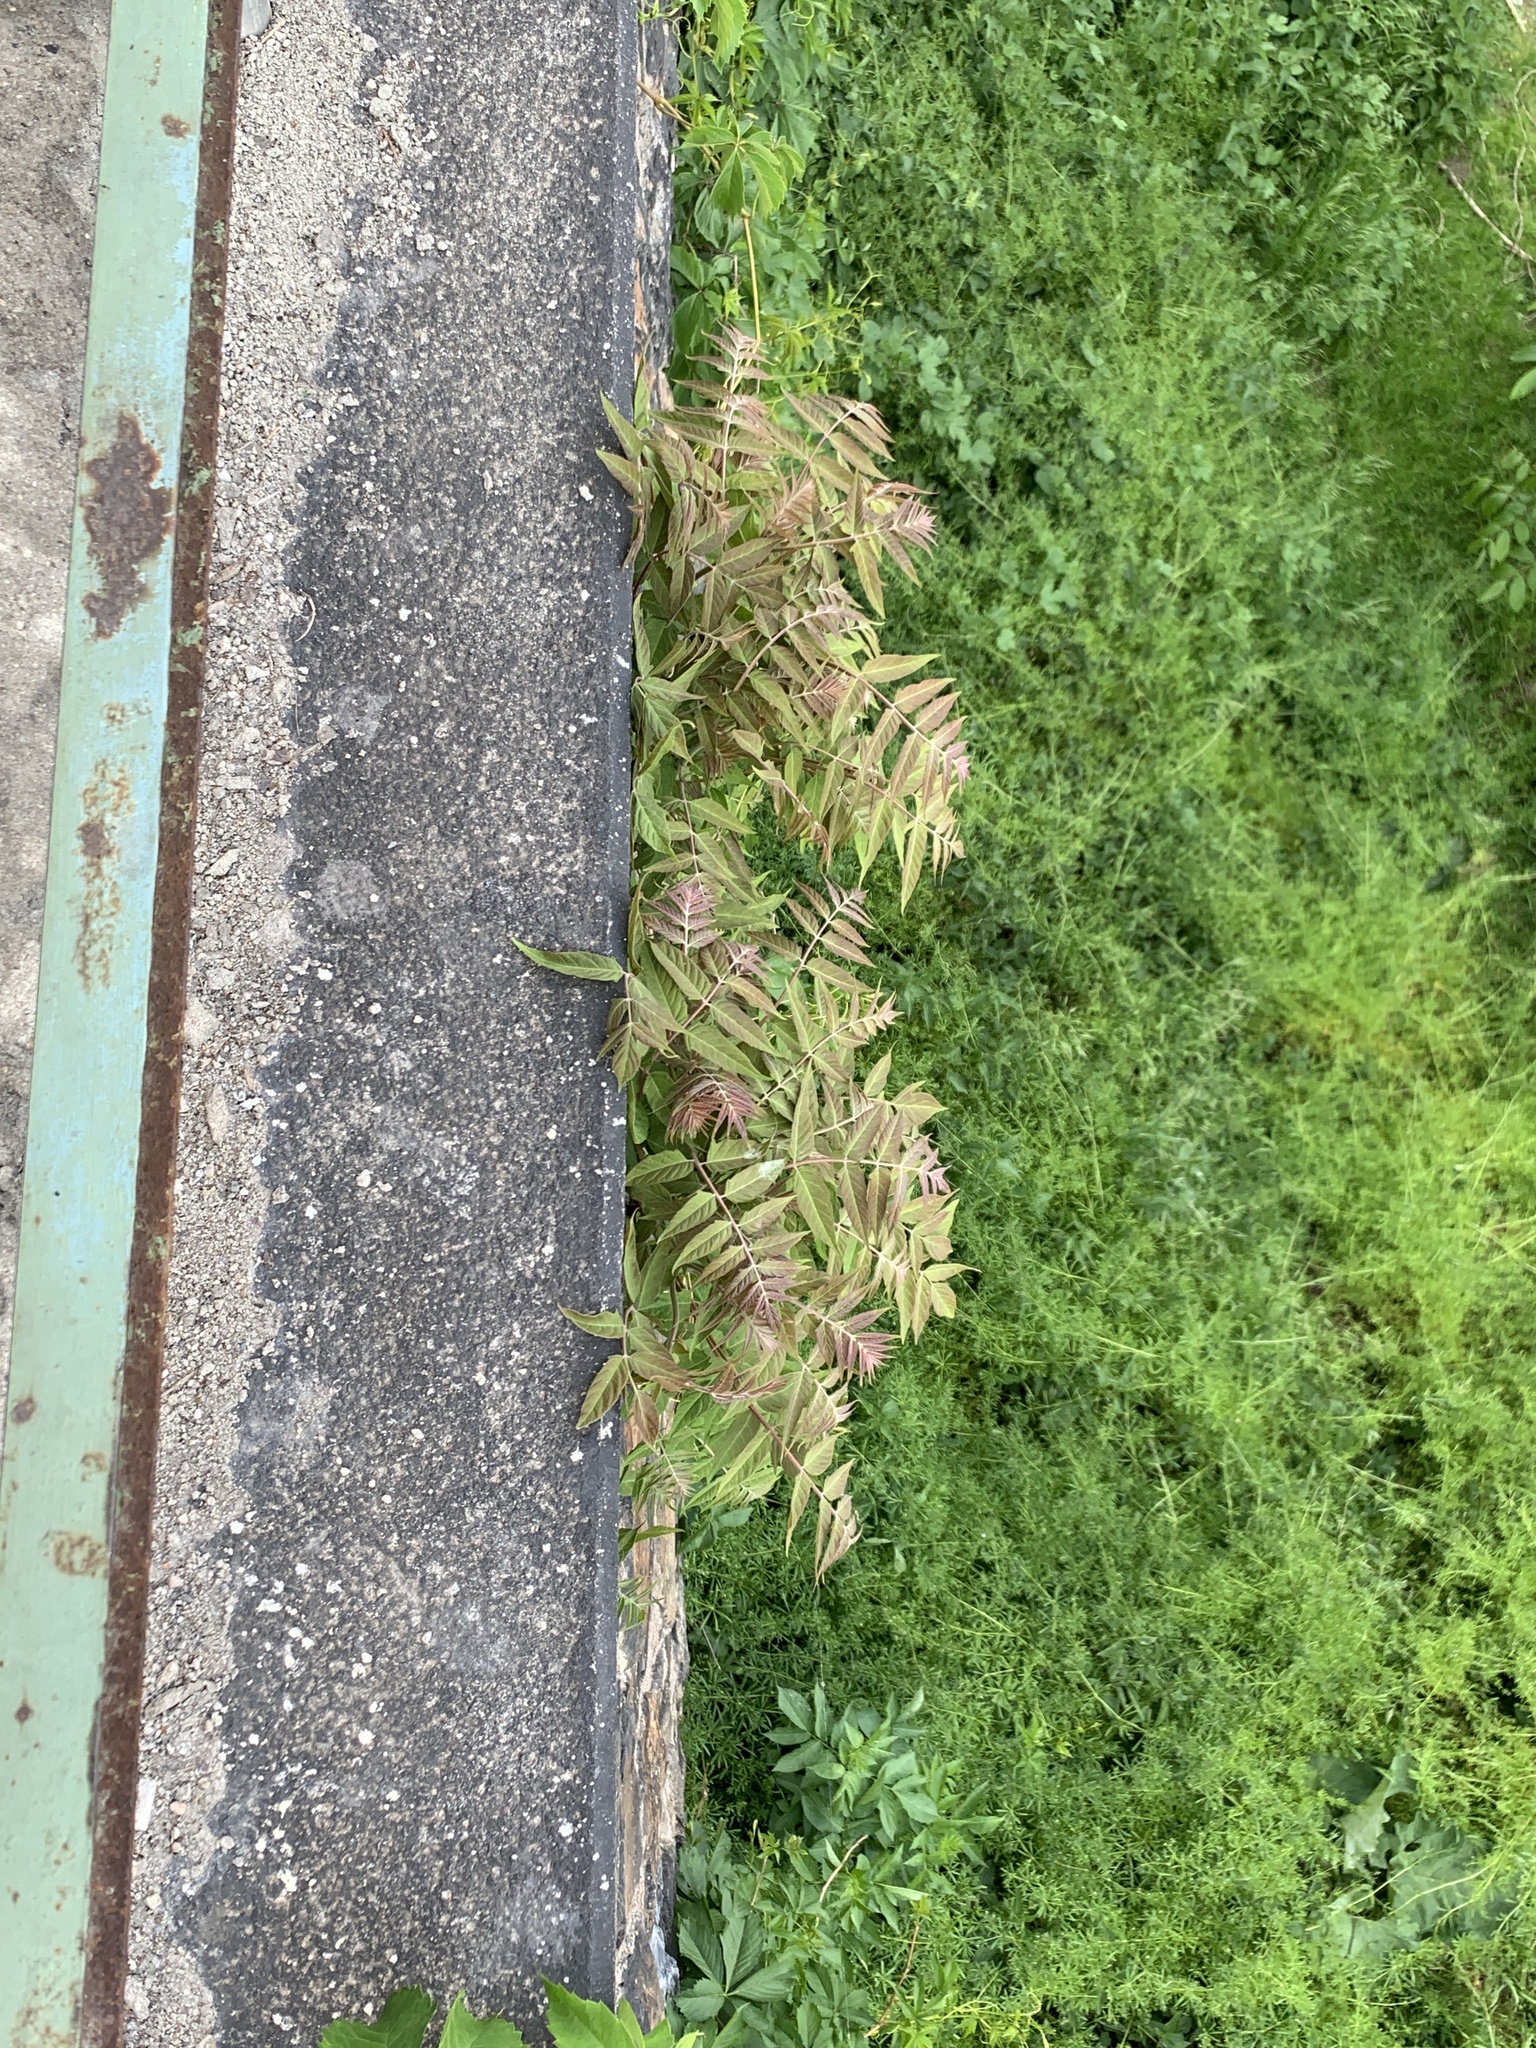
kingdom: Plantae
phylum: Tracheophyta
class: Magnoliopsida
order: Sapindales
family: Simaroubaceae
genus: Ailanthus
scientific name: Ailanthus altissima
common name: Tree-of-heaven
